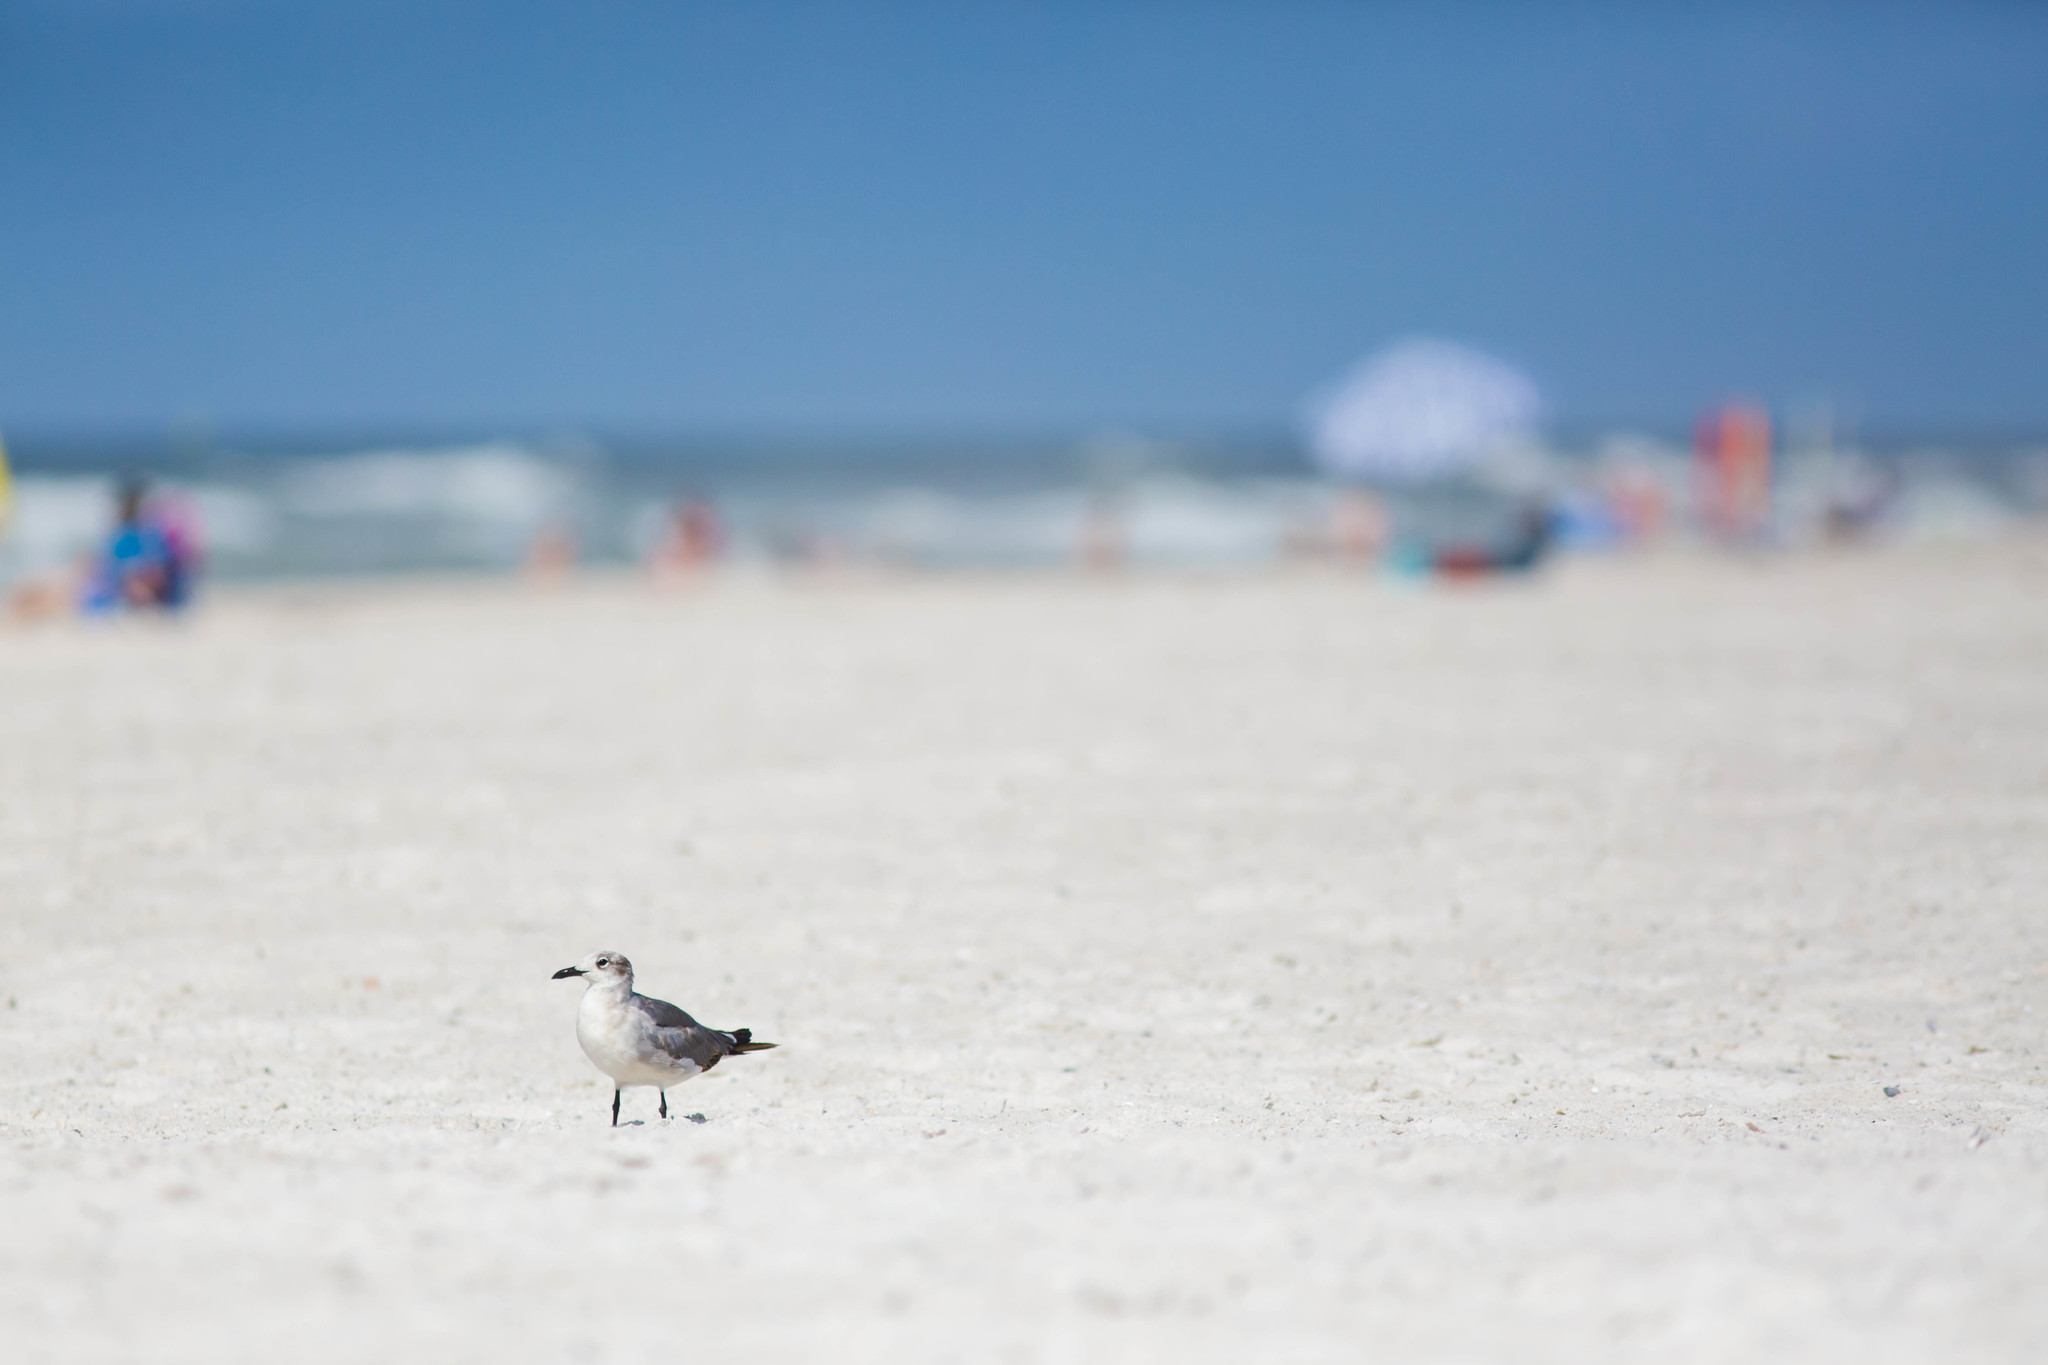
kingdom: Animalia
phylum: Chordata
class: Aves
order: Charadriiformes
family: Laridae
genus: Leucophaeus
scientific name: Leucophaeus atricilla
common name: Laughing gull
